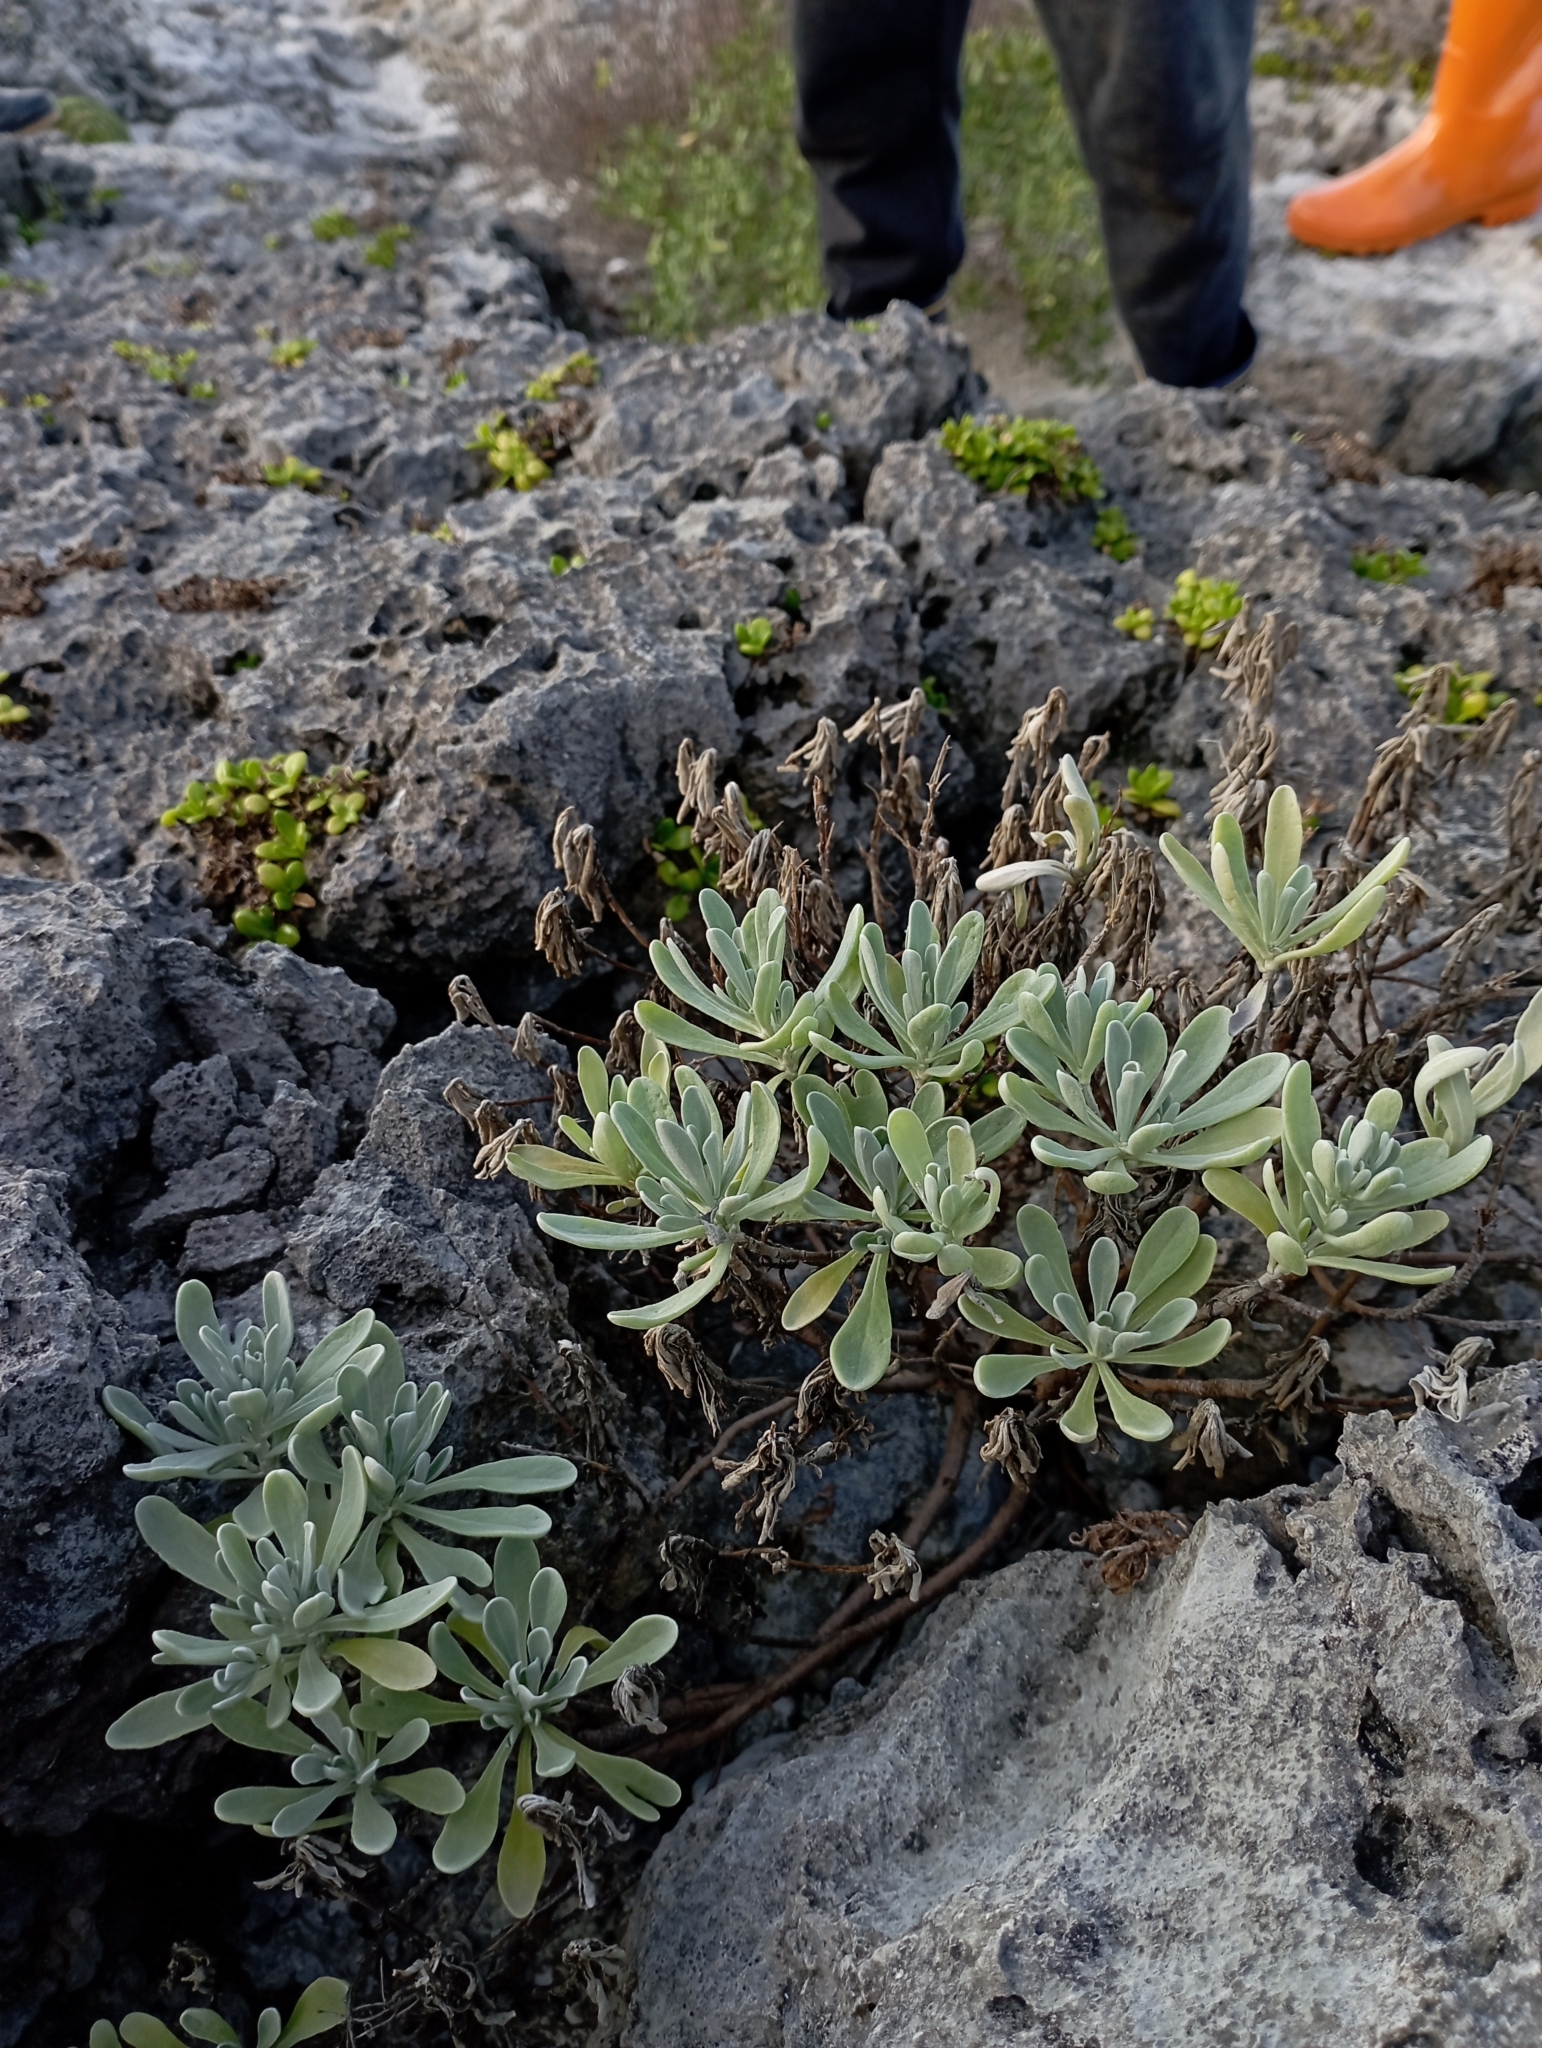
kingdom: Plantae
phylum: Tracheophyta
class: Magnoliopsida
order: Asterales
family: Asteraceae
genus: Crossostephium
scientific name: Crossostephium chinense
